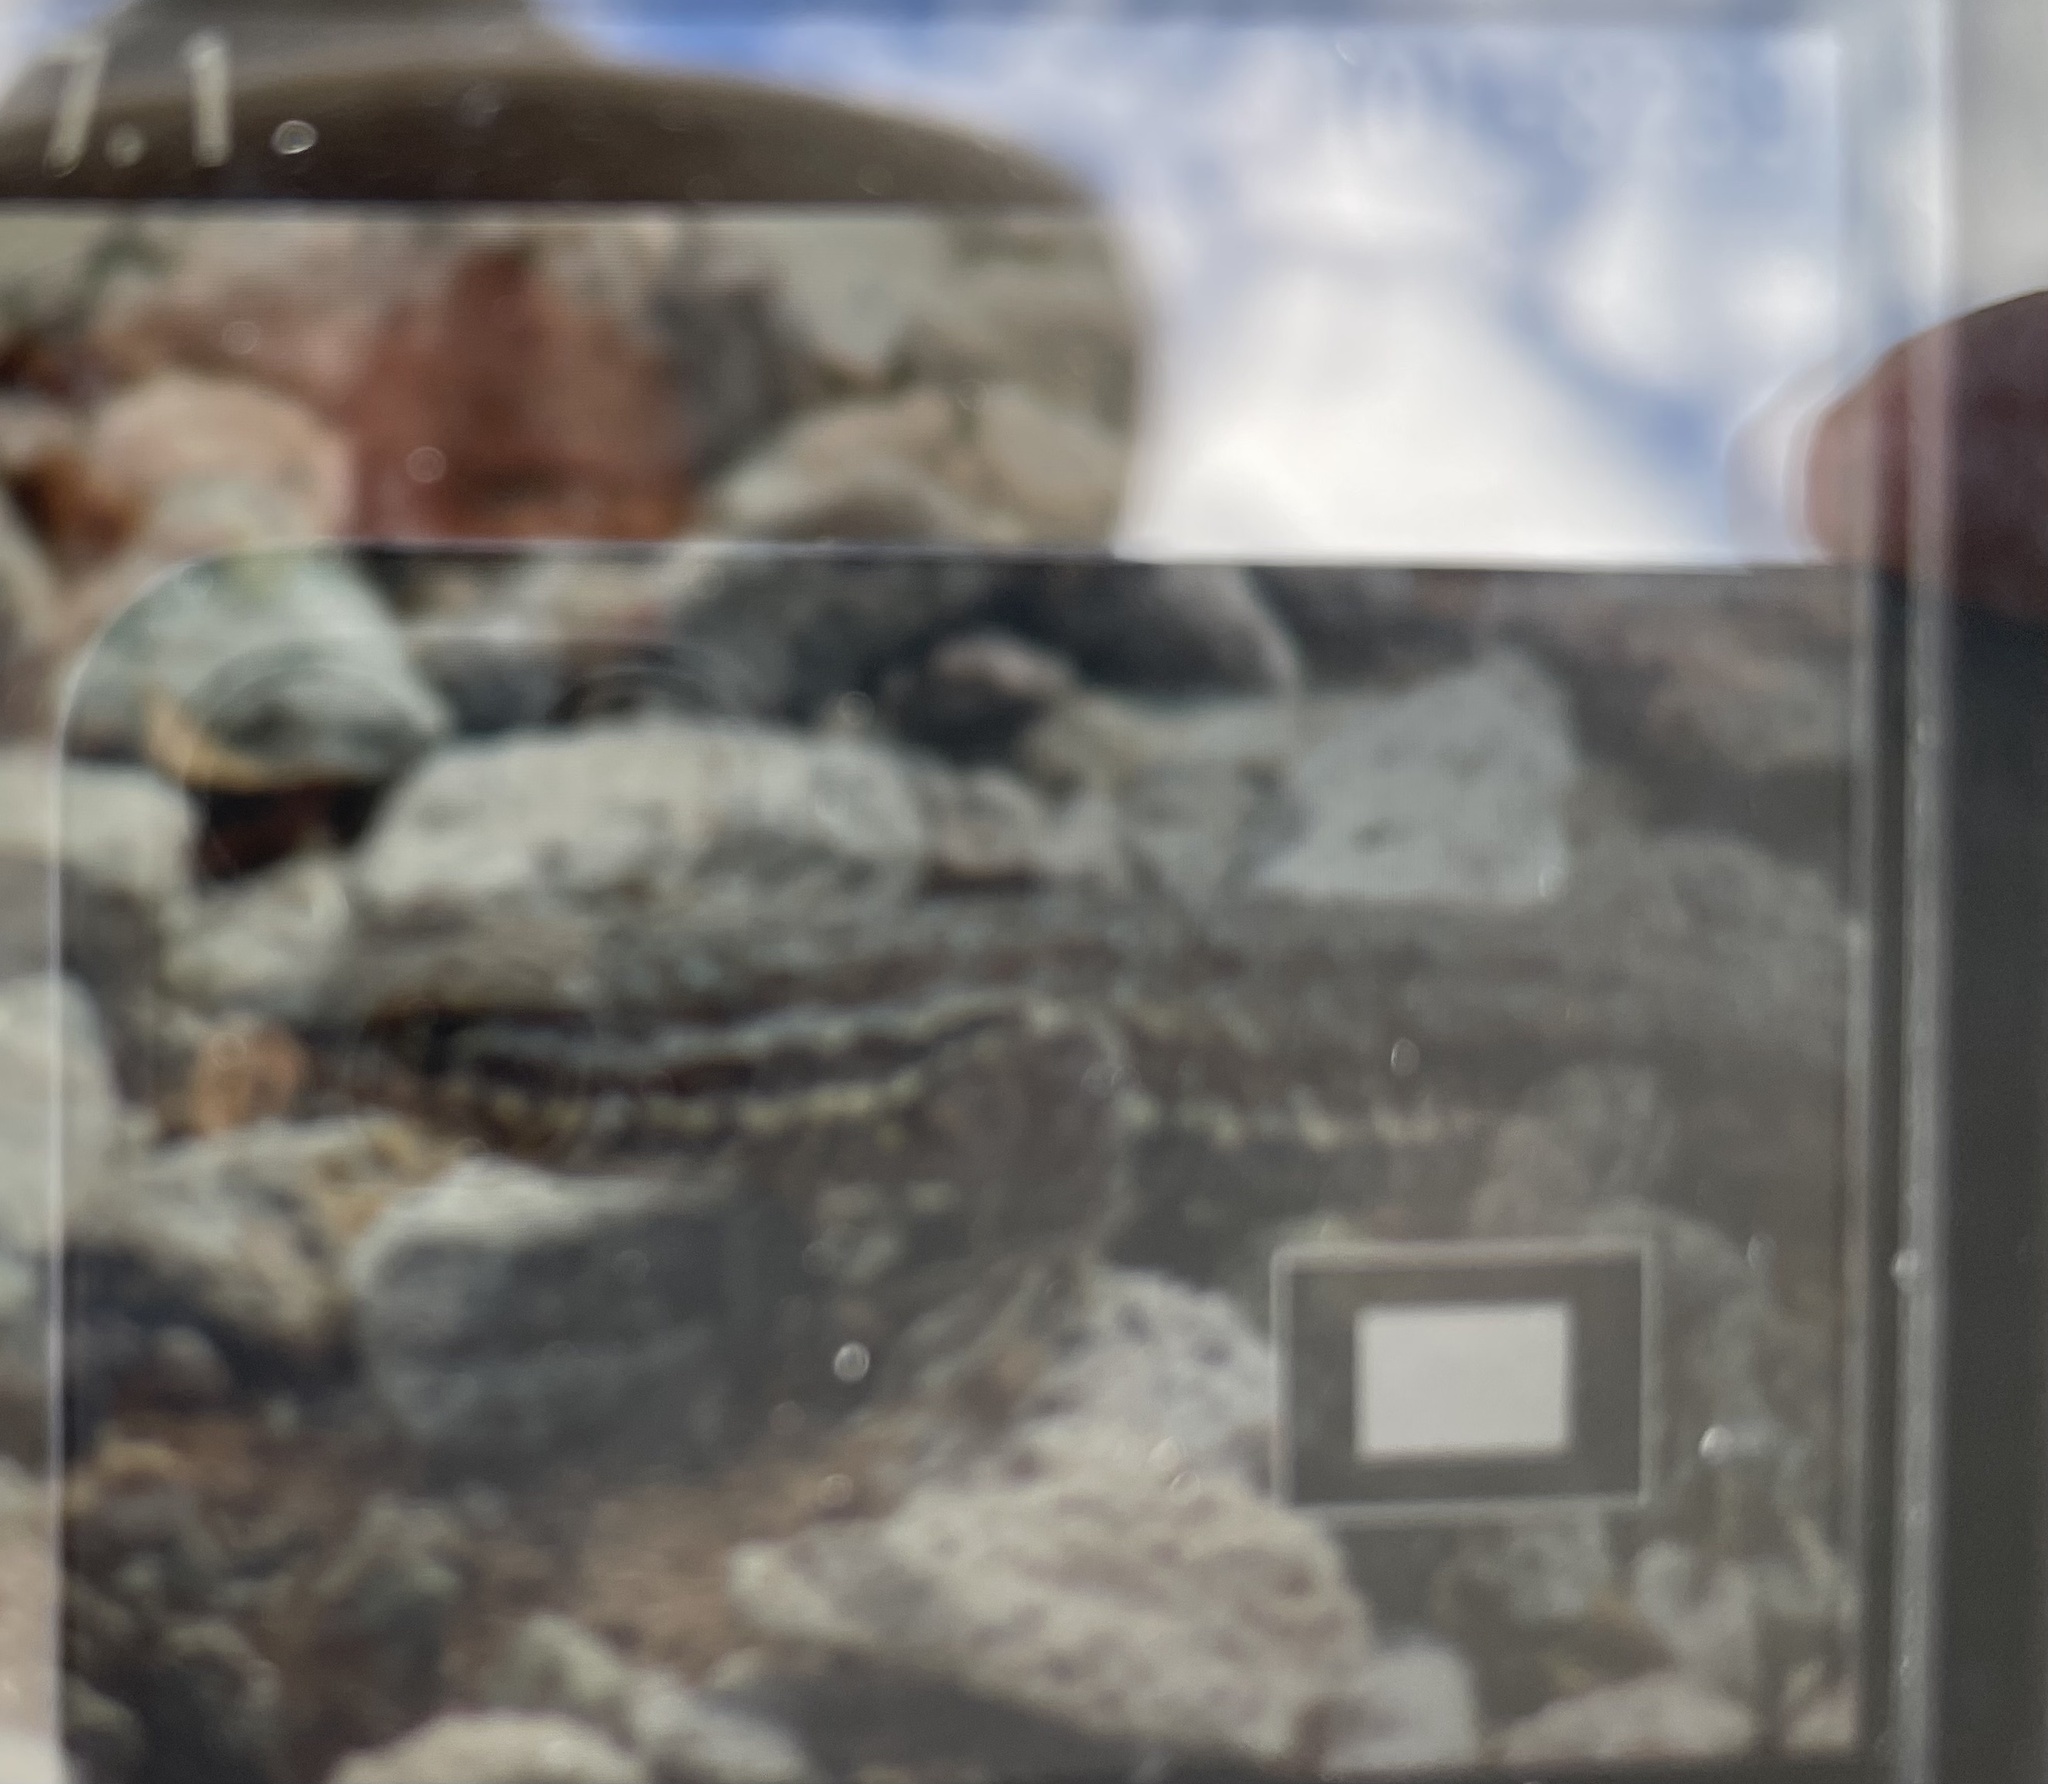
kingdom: Animalia
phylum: Chordata
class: Squamata
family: Phrynosomatidae
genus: Uta
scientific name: Uta stansburiana
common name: Side-blotched lizard
